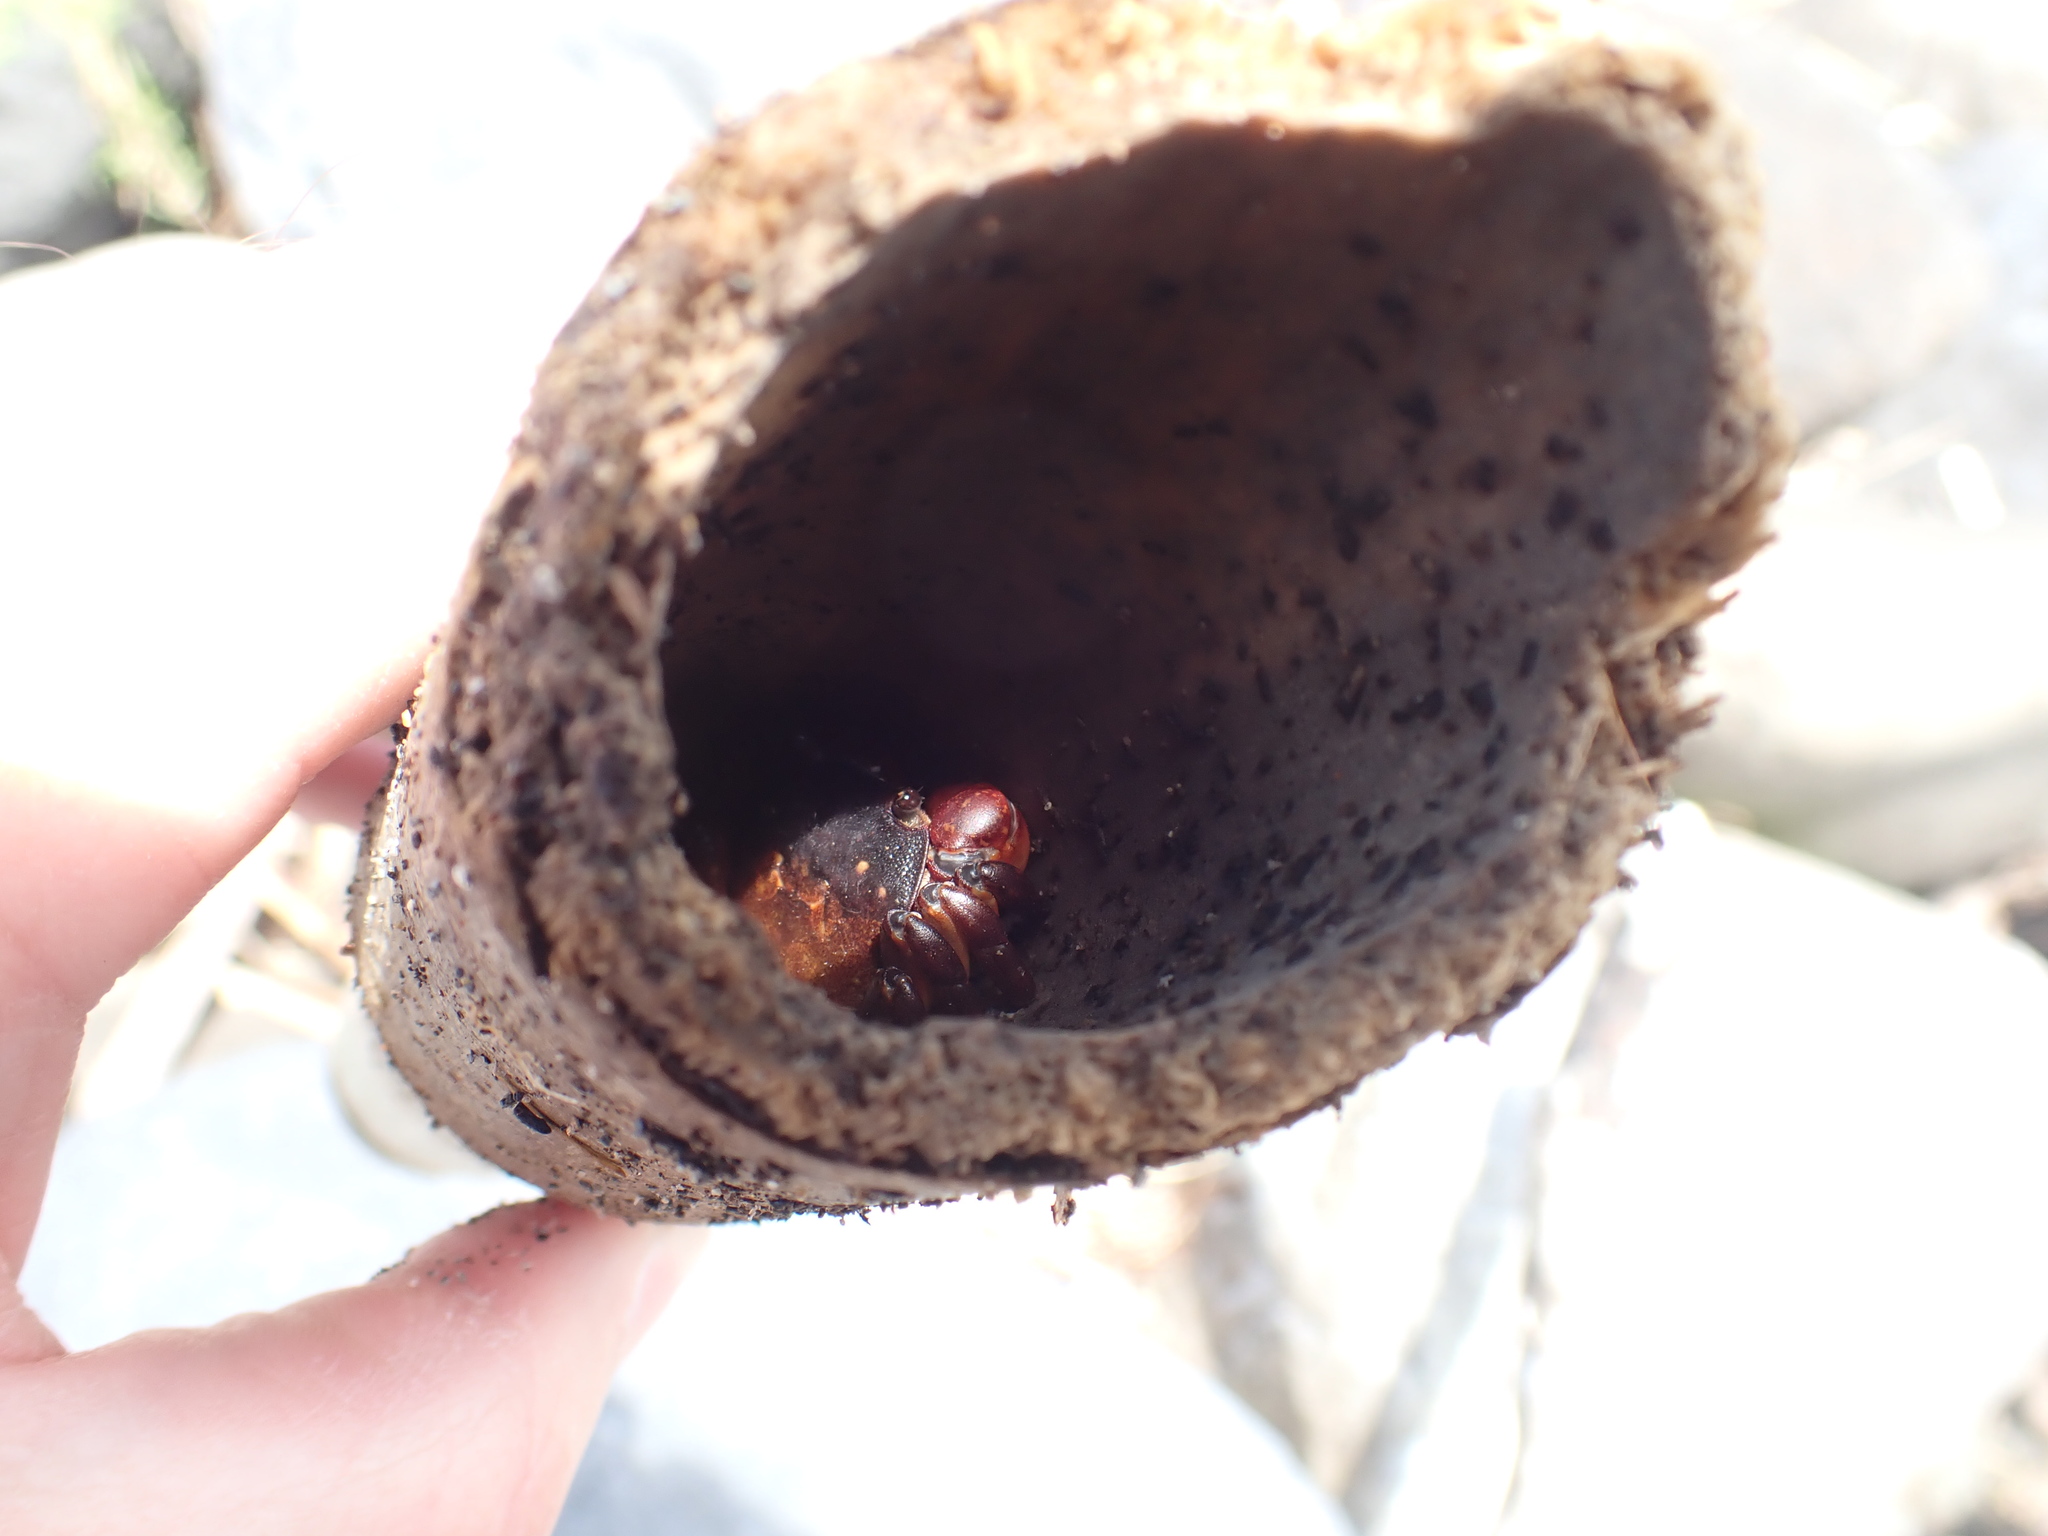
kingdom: Animalia
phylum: Arthropoda
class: Malacostraca
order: Decapoda
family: Varunidae
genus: Cyclograpsus
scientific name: Cyclograpsus lavauxi
